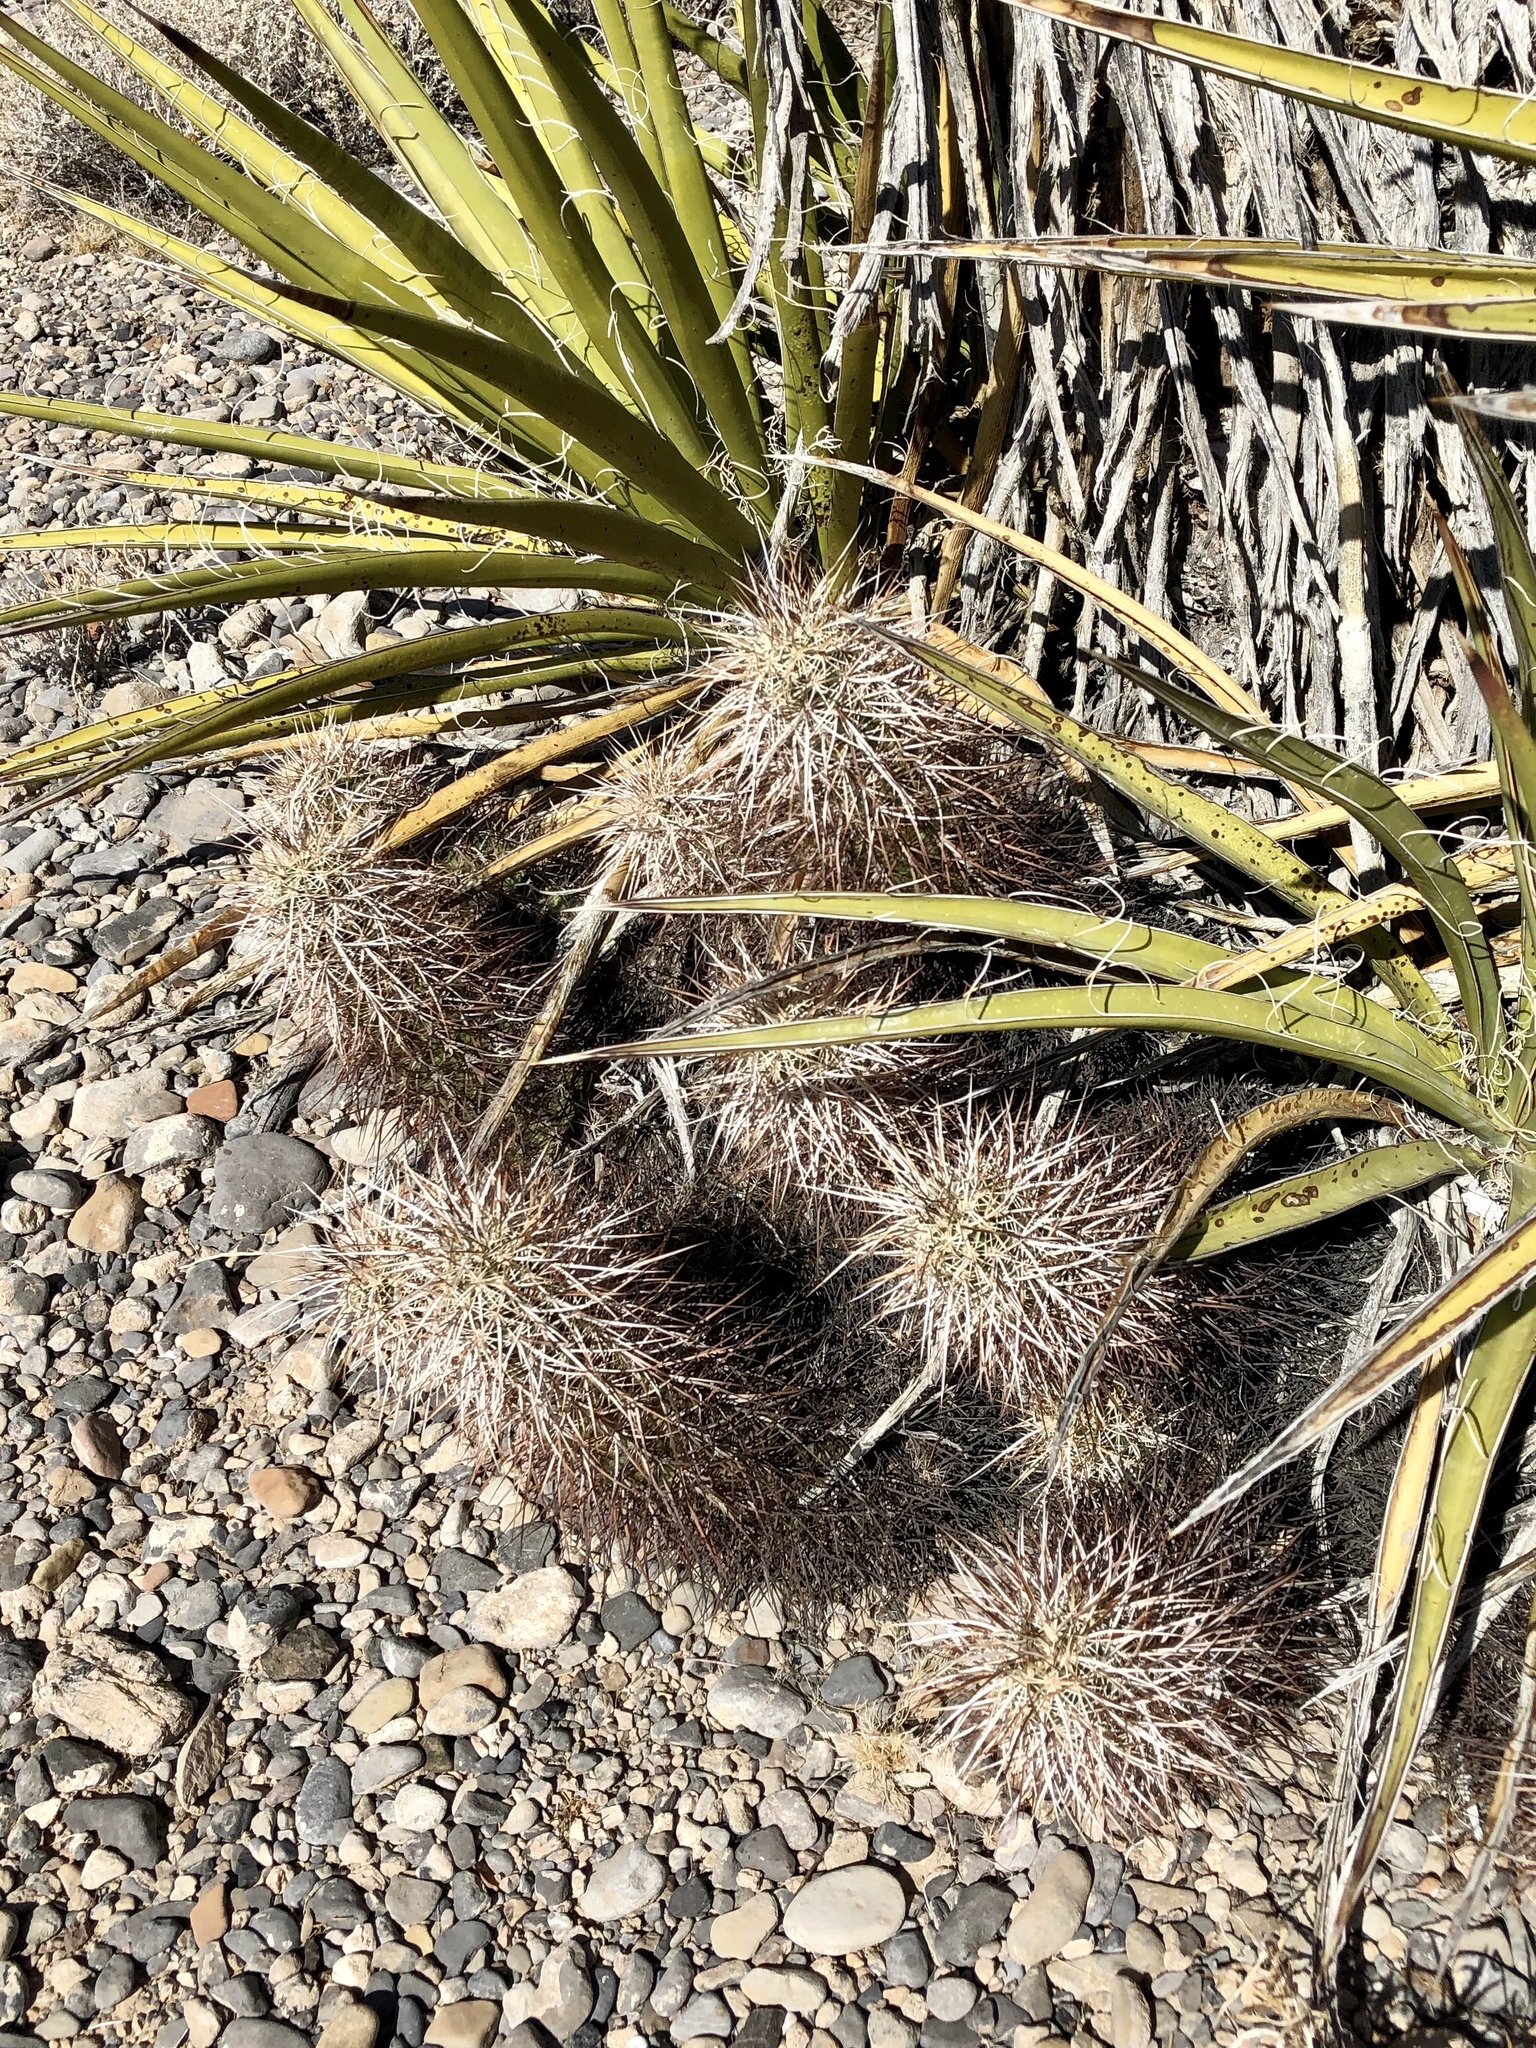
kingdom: Plantae
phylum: Tracheophyta
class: Magnoliopsida
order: Caryophyllales
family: Cactaceae
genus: Echinocereus
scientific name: Echinocereus engelmannii
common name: Engelmann's hedgehog cactus
